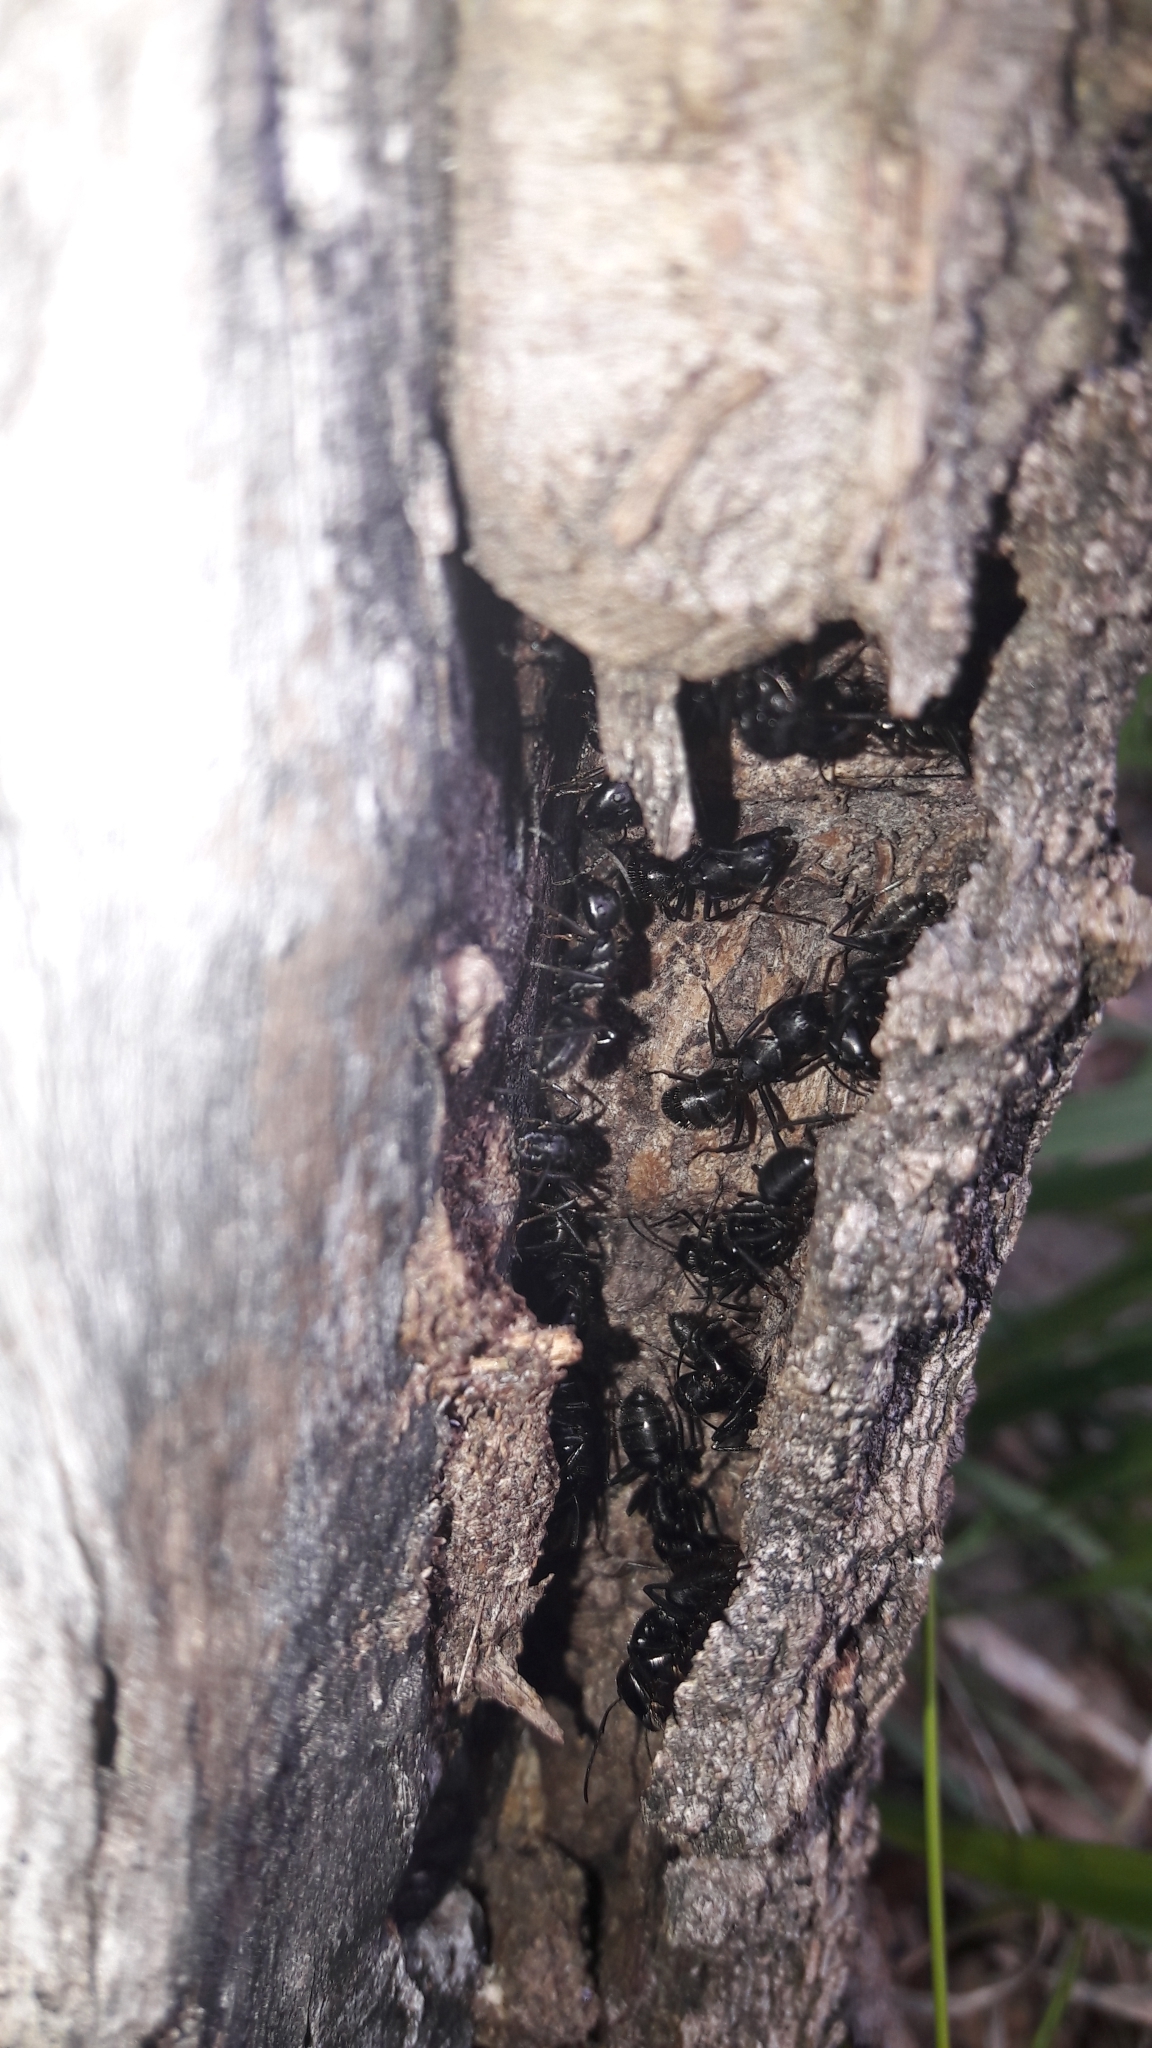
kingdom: Animalia
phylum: Arthropoda
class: Insecta
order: Hymenoptera
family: Formicidae
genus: Camponotus
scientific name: Camponotus vagus
